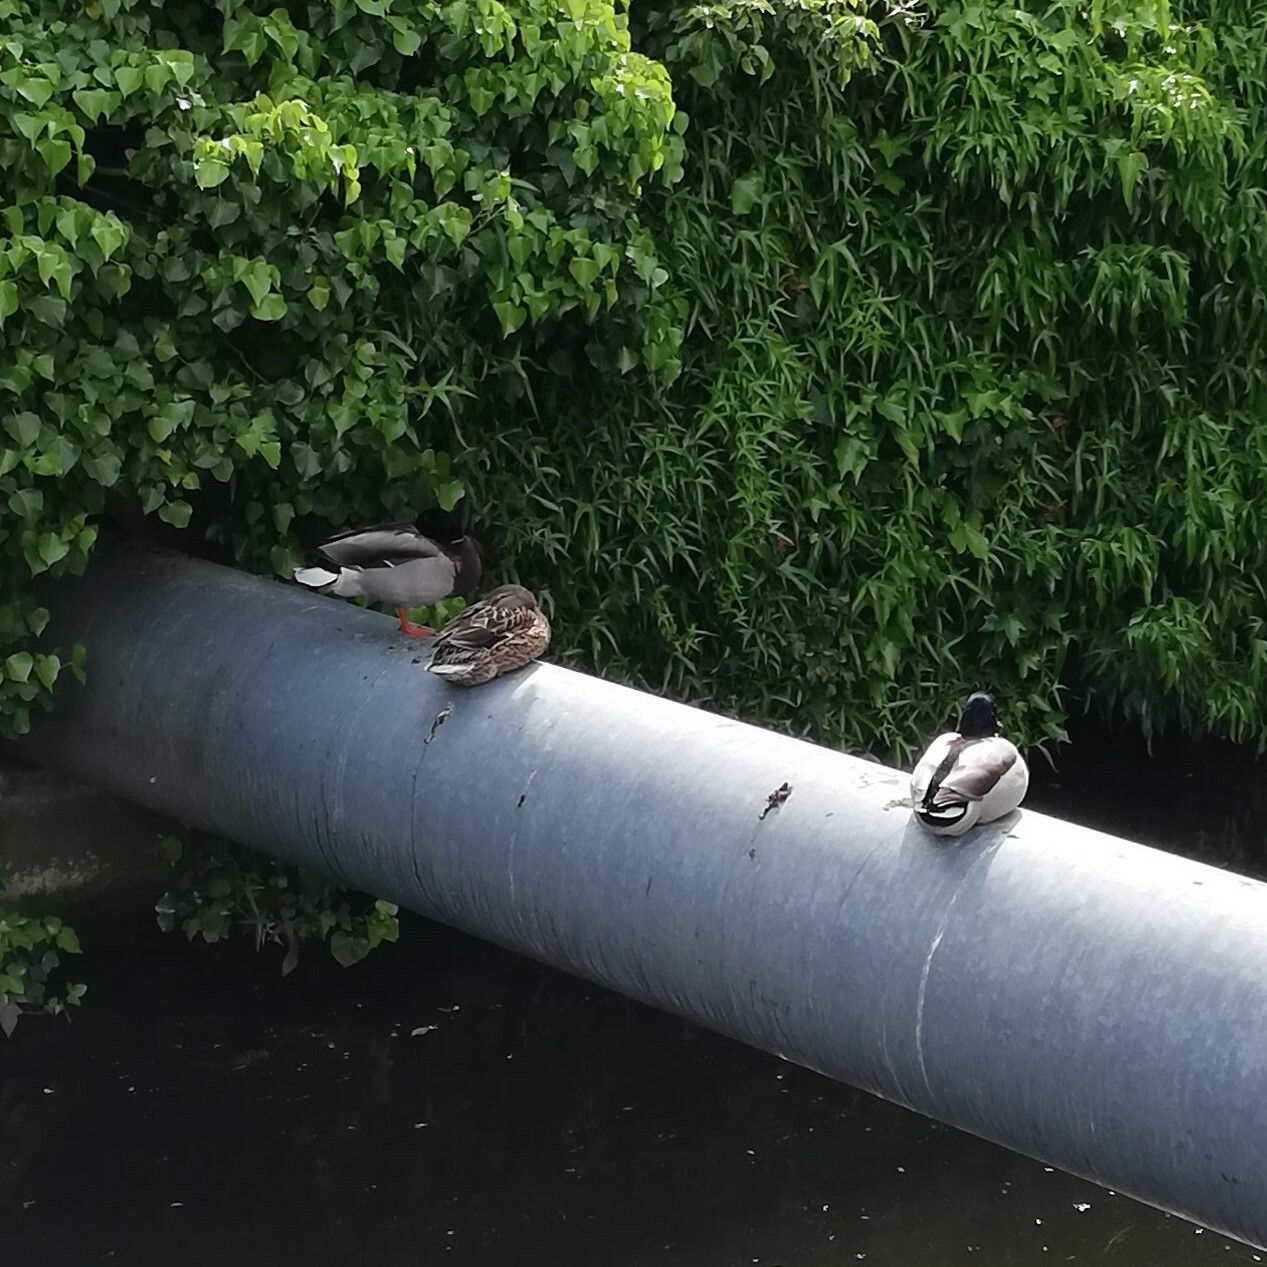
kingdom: Animalia
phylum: Chordata
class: Aves
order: Anseriformes
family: Anatidae
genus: Anas
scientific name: Anas platyrhynchos
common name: Mallard
